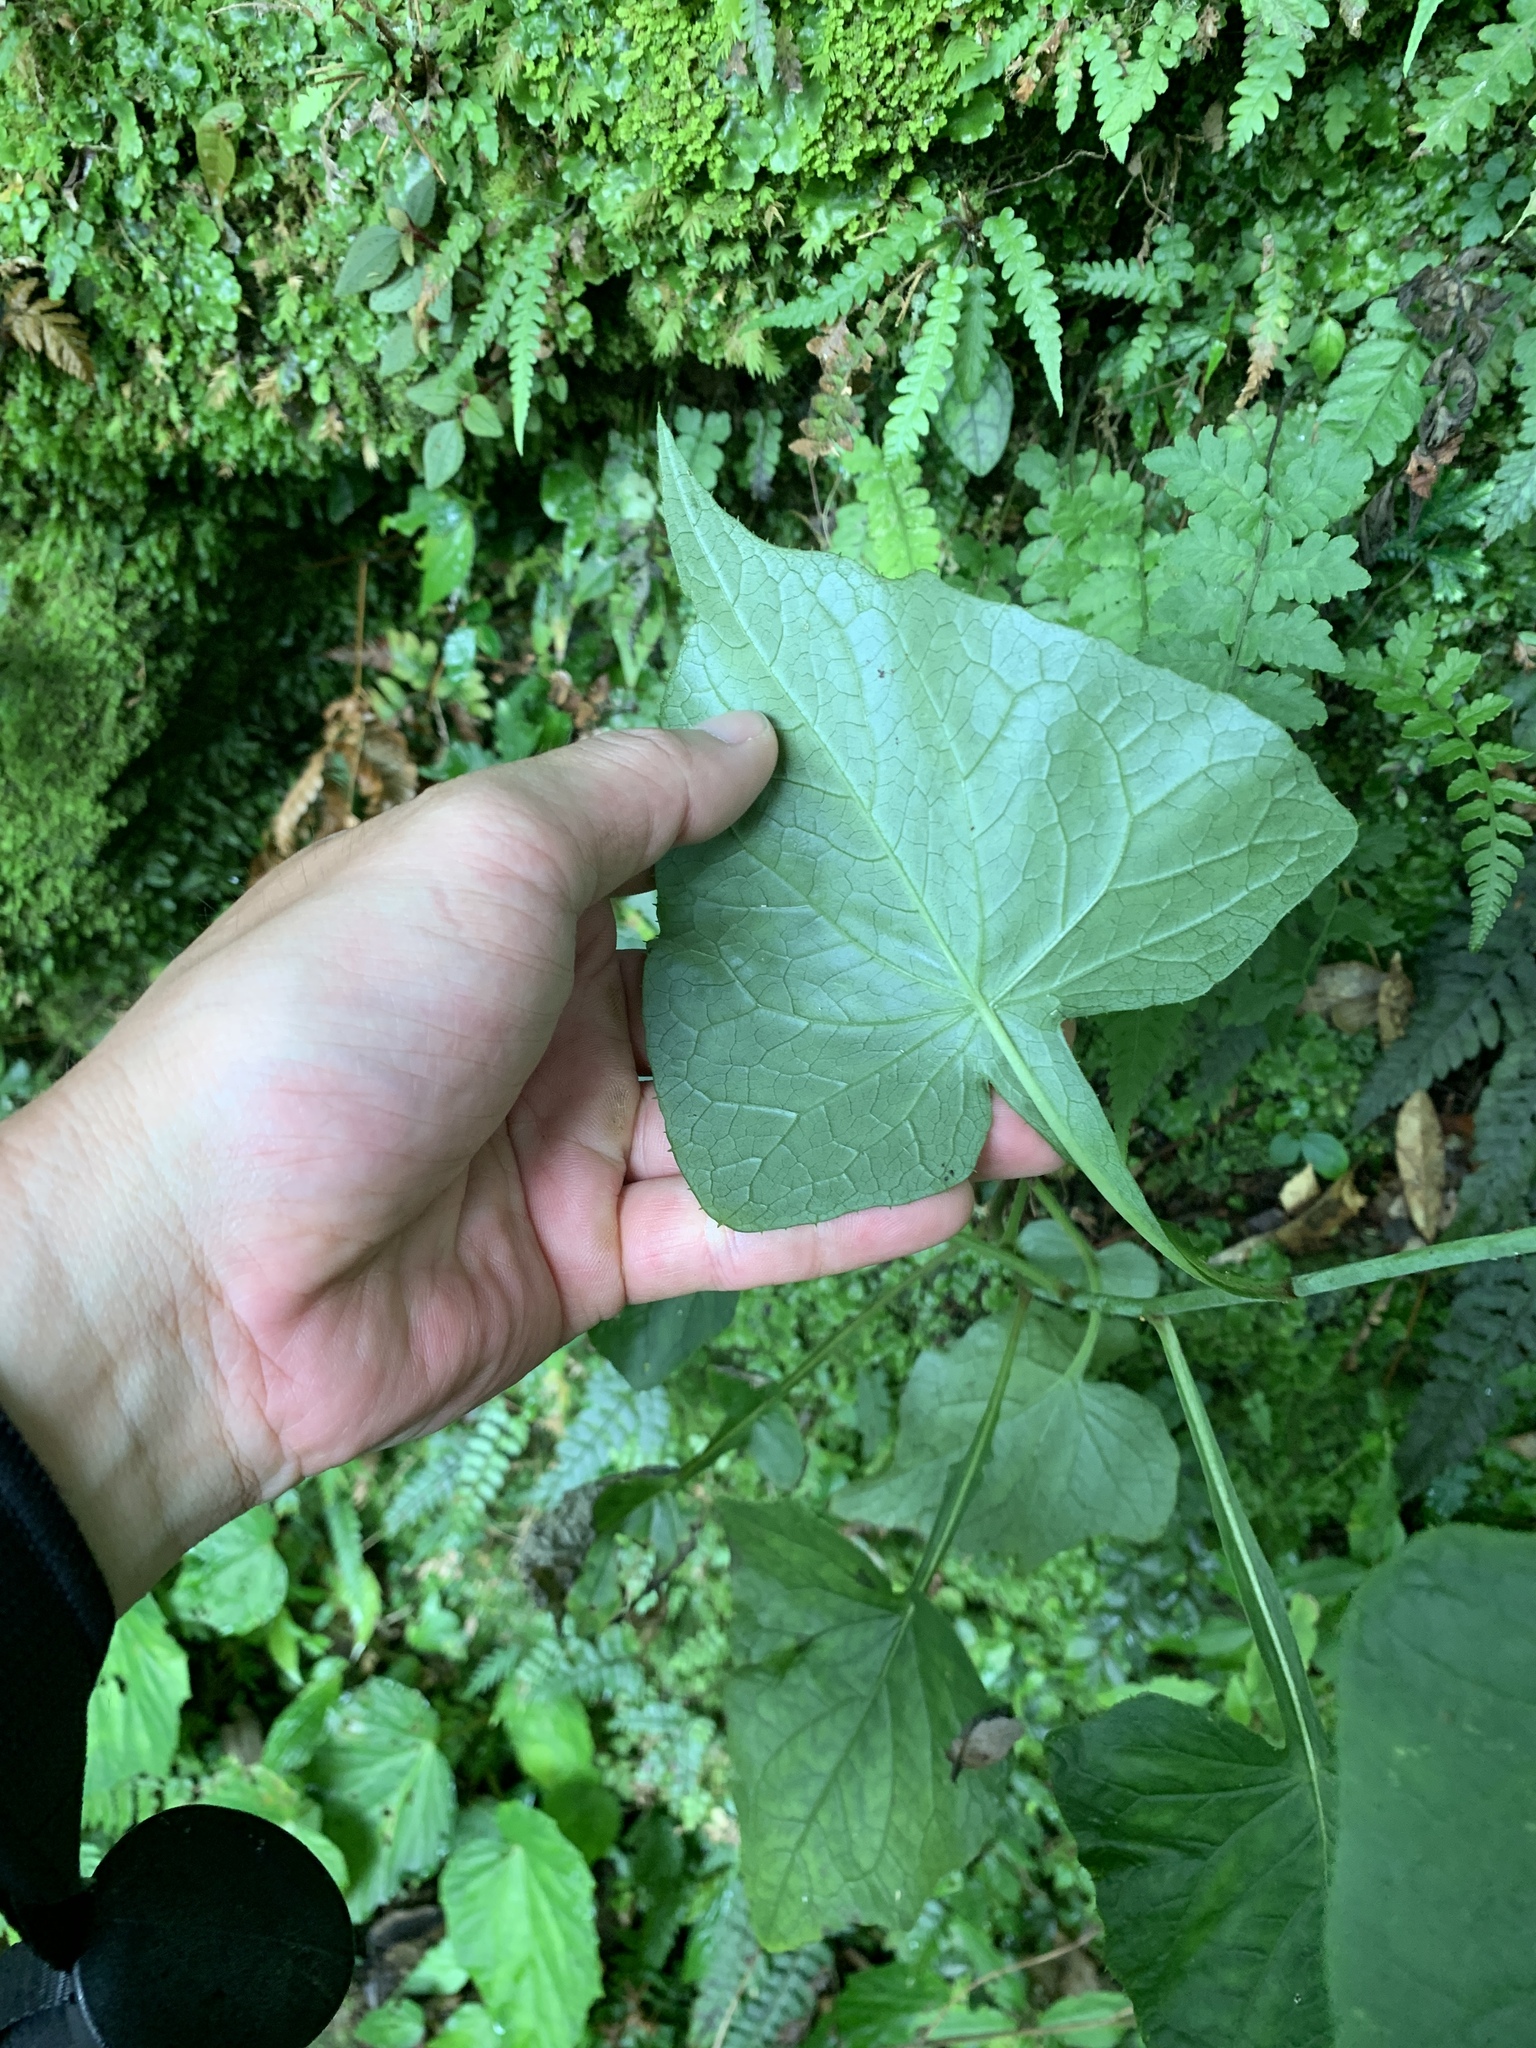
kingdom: Plantae
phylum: Tracheophyta
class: Magnoliopsida
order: Asterales
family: Asteraceae
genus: Paraprenanthes
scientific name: Paraprenanthes sororia
